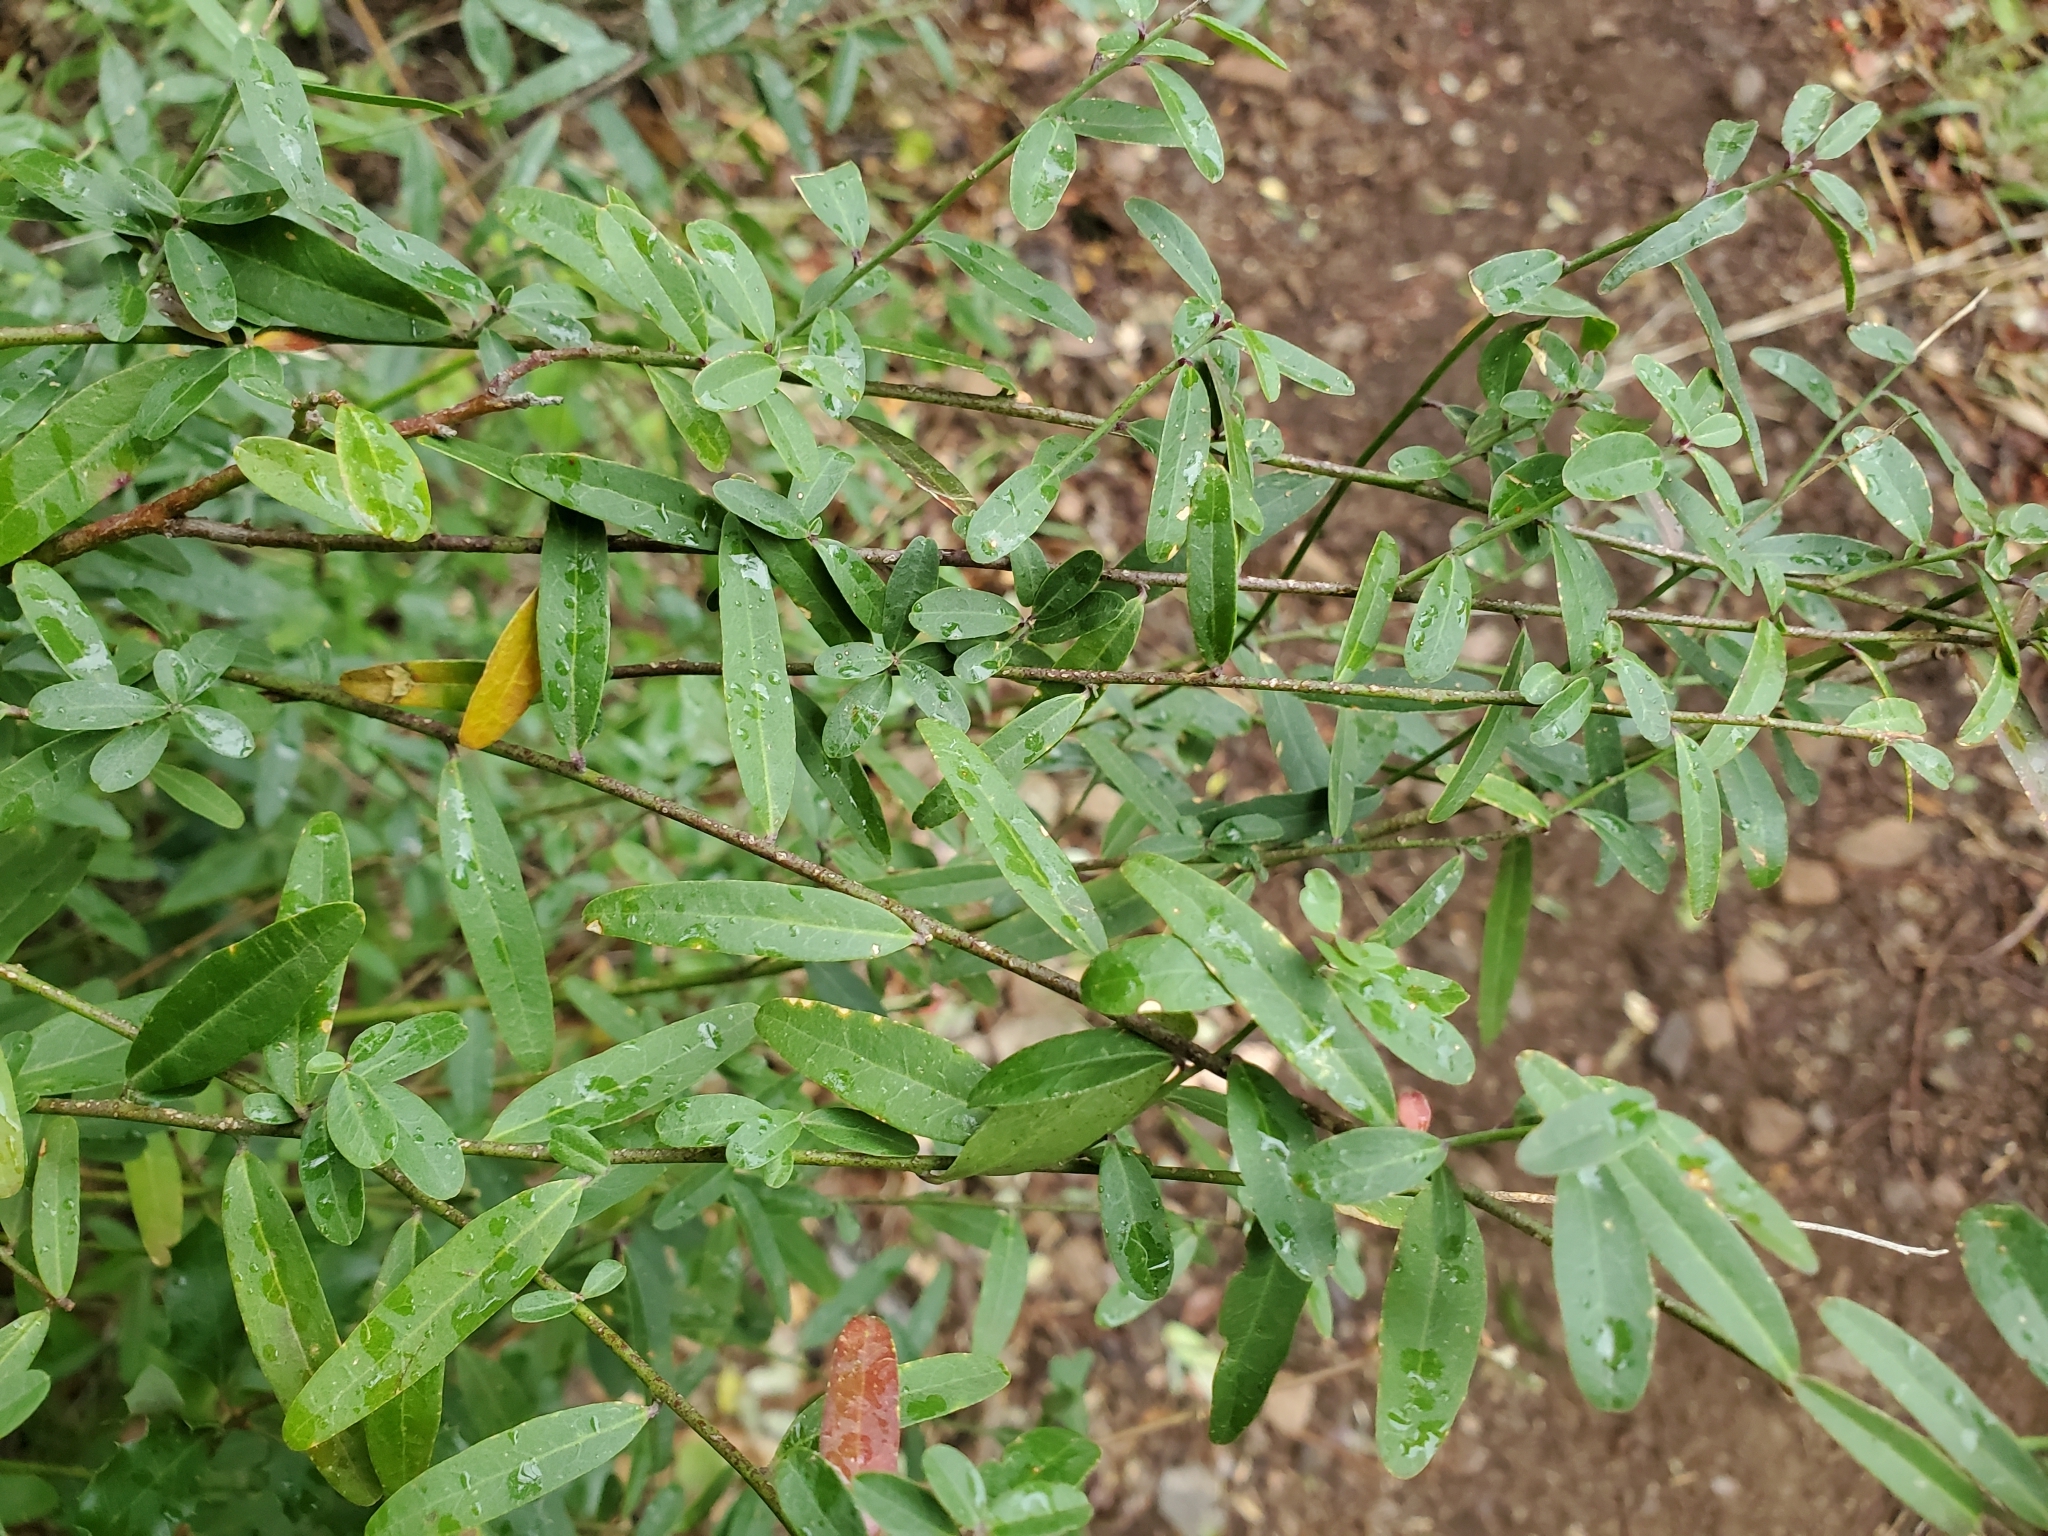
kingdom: Plantae
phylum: Tracheophyta
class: Magnoliopsida
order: Fabales
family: Polygalaceae
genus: Rhinotropis
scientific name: Rhinotropis cornuta
